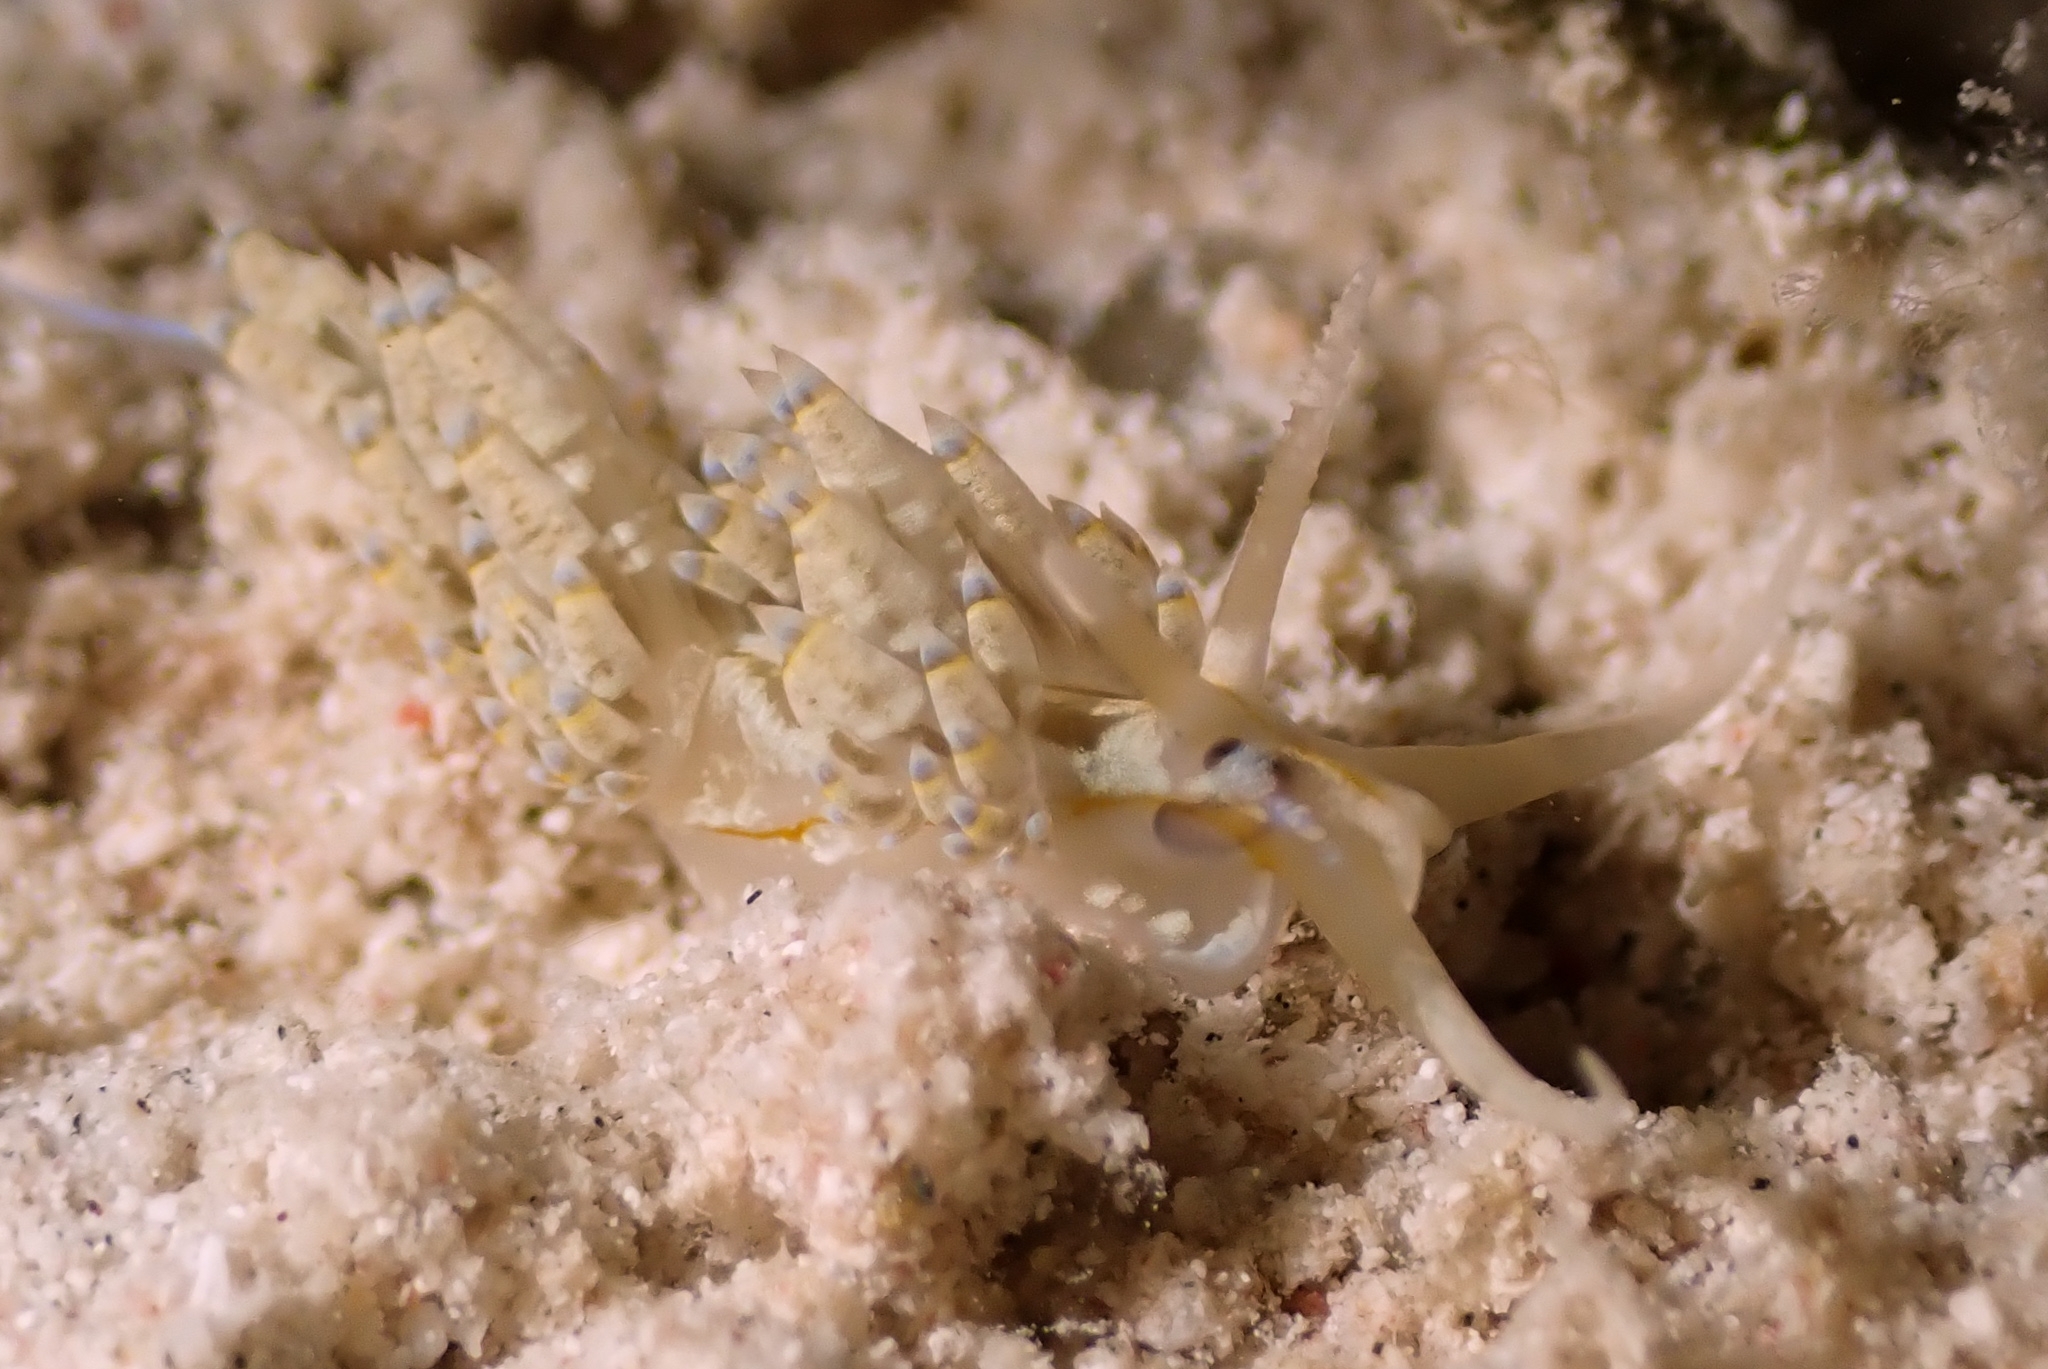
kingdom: Animalia
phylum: Mollusca
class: Gastropoda
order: Nudibranchia
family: Myrrhinidae
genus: Dondice
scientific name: Dondice occidentalis
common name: Fringe-back nudibranch
